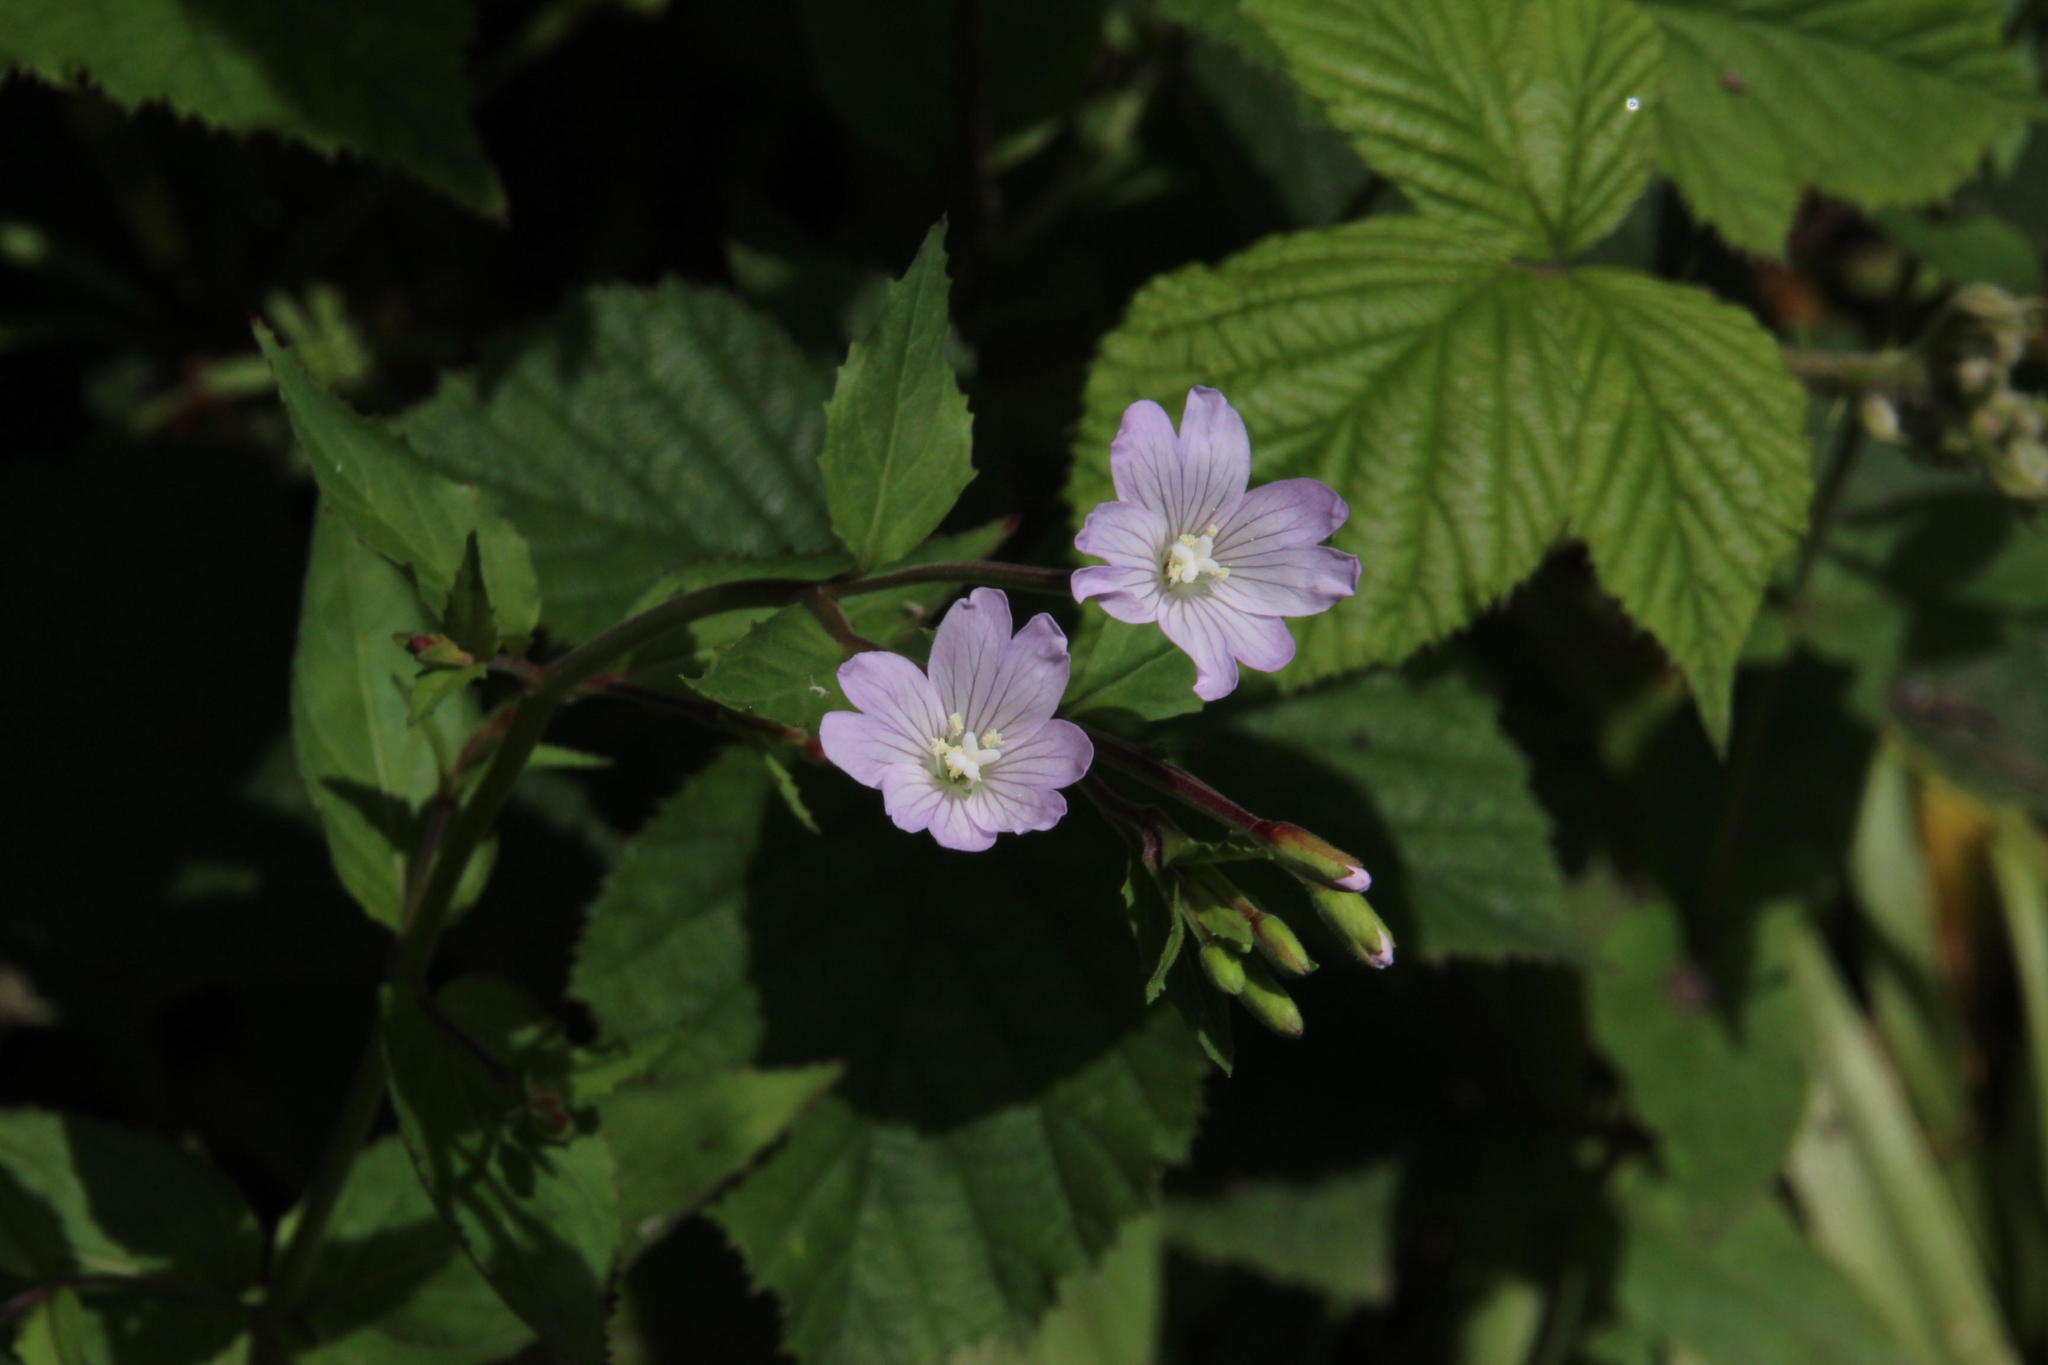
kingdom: Plantae
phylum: Tracheophyta
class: Magnoliopsida
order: Myrtales
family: Onagraceae
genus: Epilobium
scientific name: Epilobium montanum
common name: Broad-leaved willowherb
